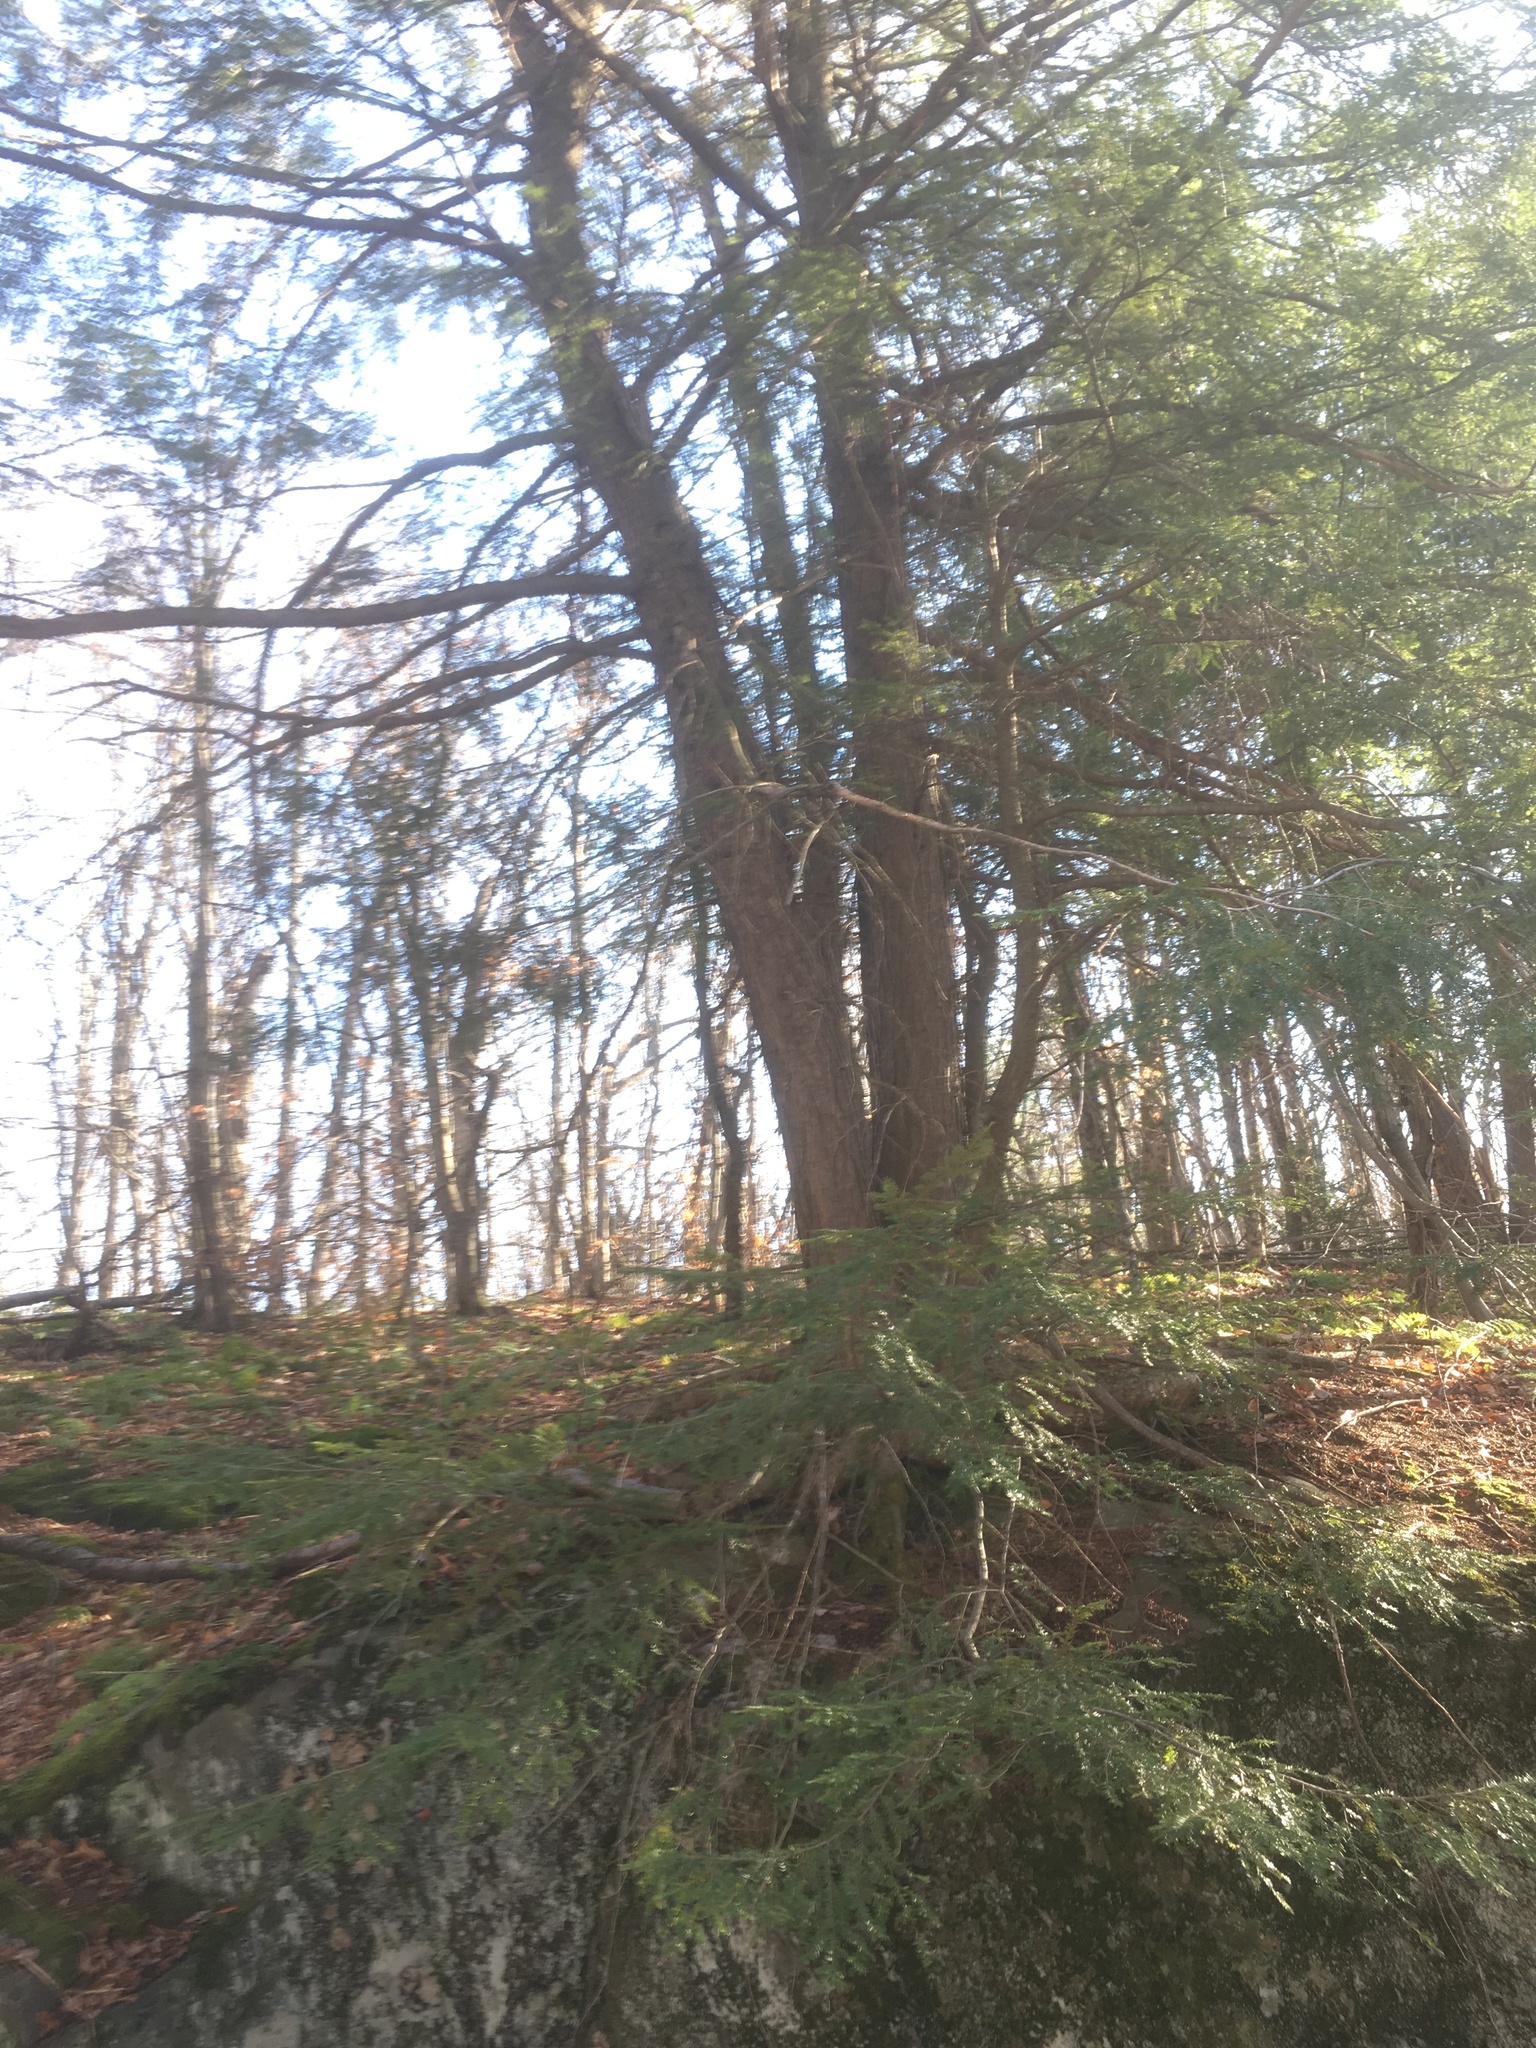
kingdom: Plantae
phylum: Tracheophyta
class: Pinopsida
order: Pinales
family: Pinaceae
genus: Tsuga
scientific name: Tsuga canadensis
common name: Eastern hemlock
